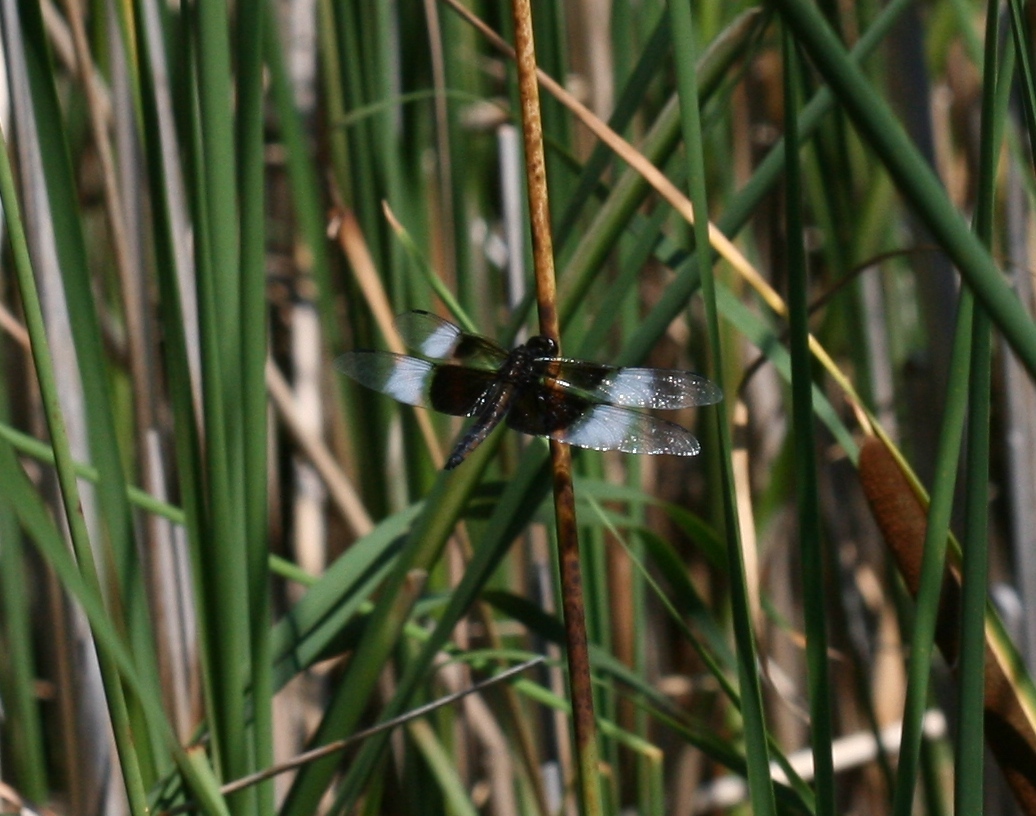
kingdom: Animalia
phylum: Arthropoda
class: Insecta
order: Odonata
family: Libellulidae
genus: Libellula
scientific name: Libellula luctuosa
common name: Widow skimmer
